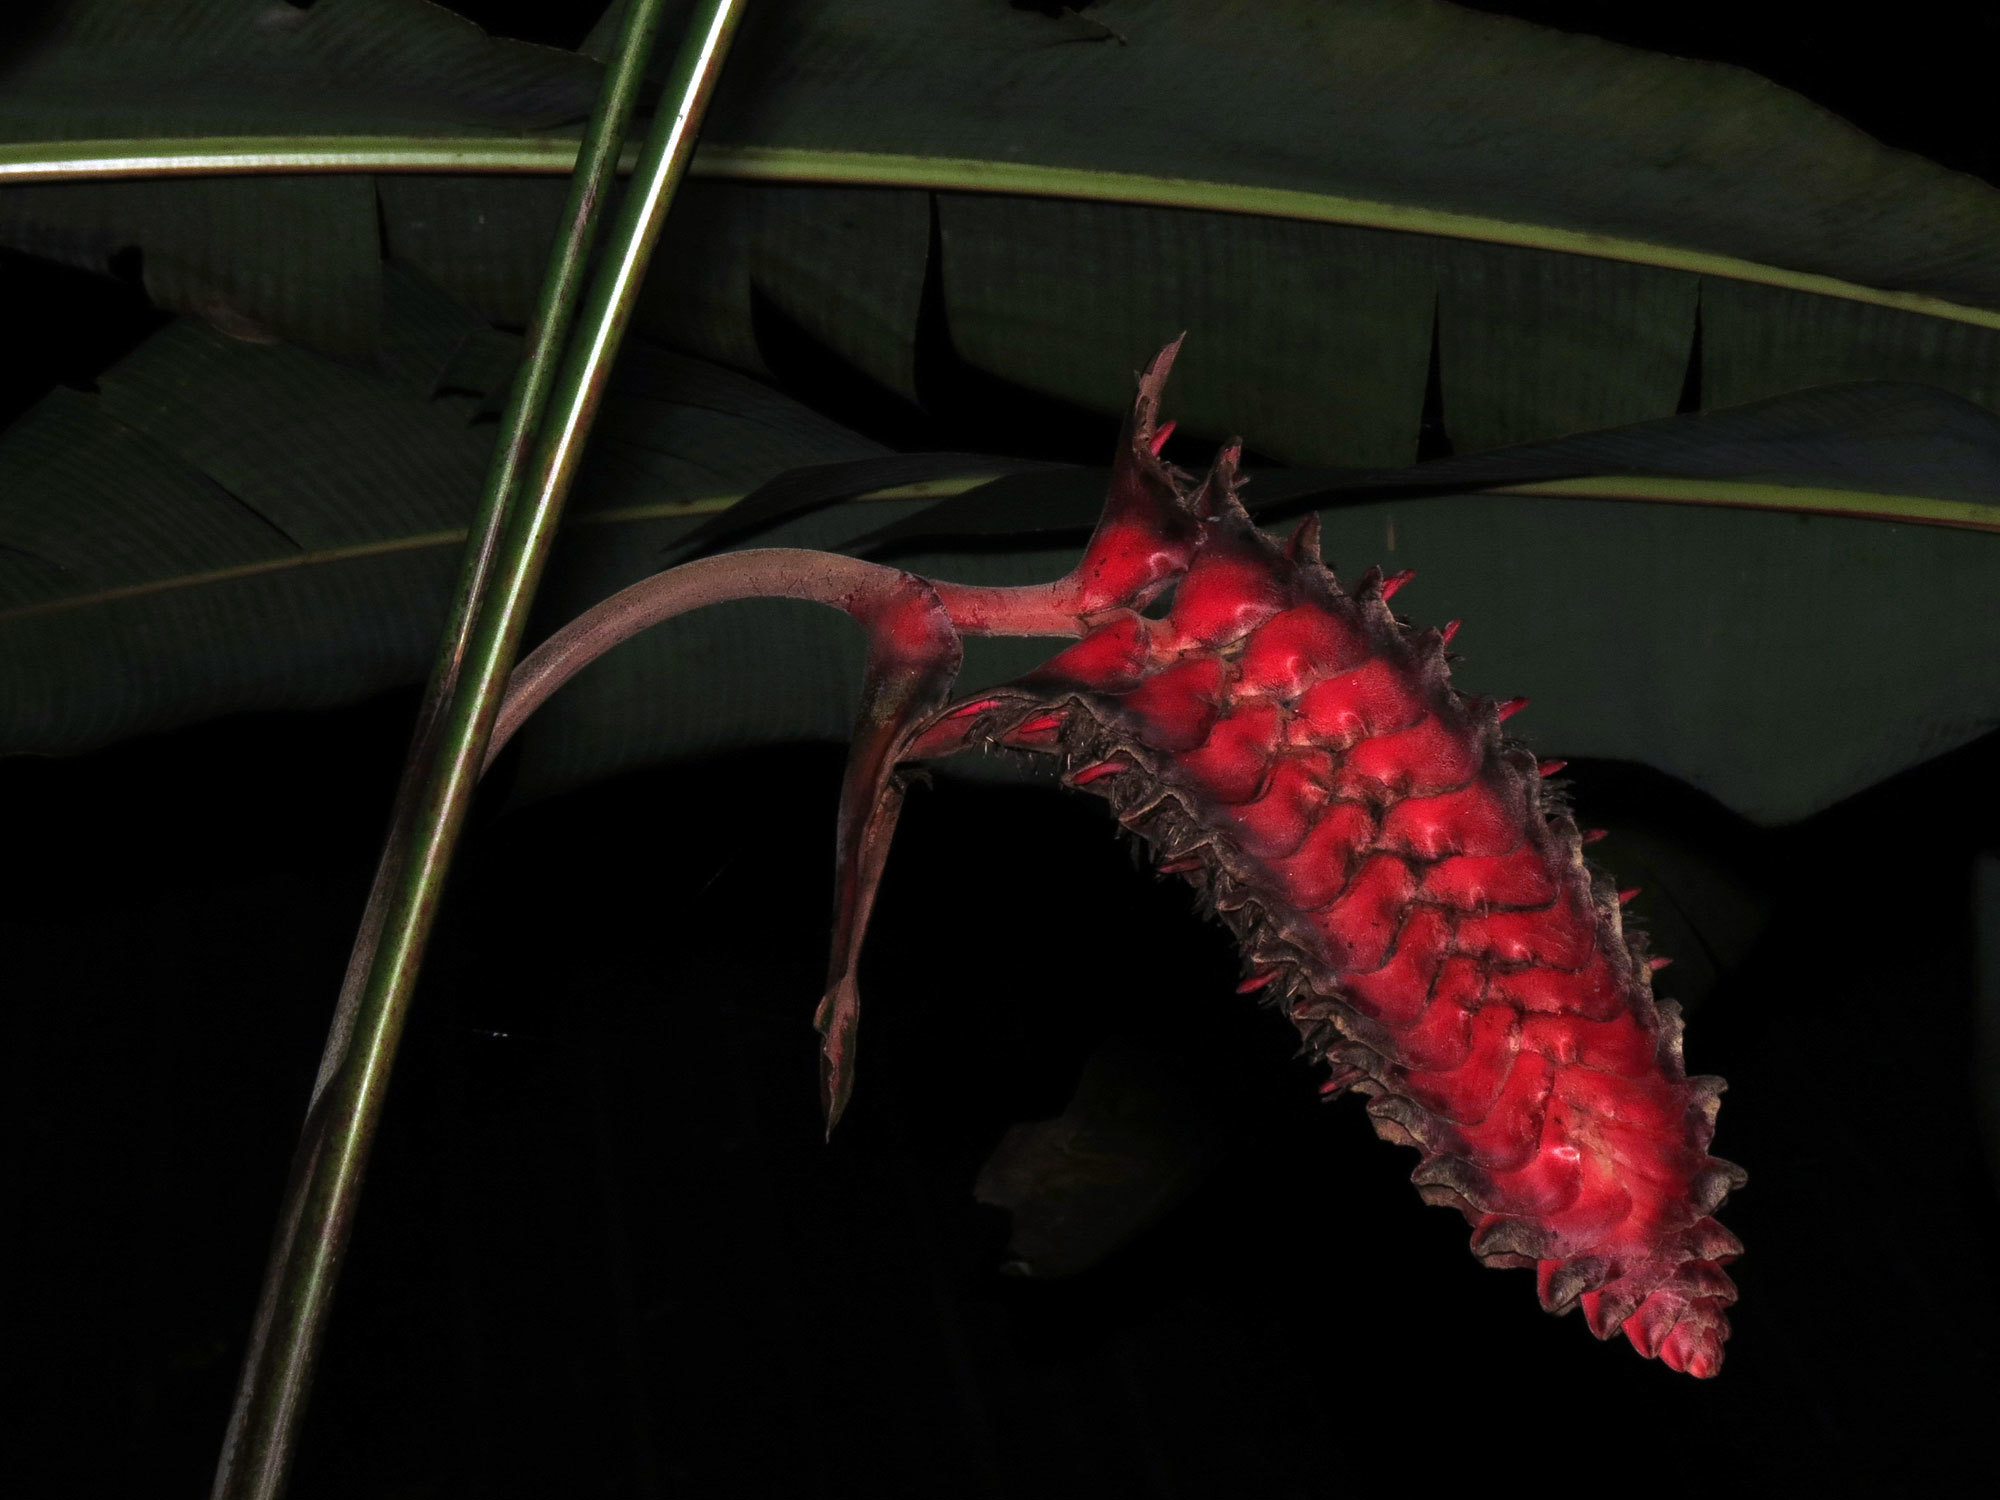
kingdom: Plantae
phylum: Tracheophyta
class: Liliopsida
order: Zingiberales
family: Heliconiaceae
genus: Heliconia
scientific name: Heliconia mariae
